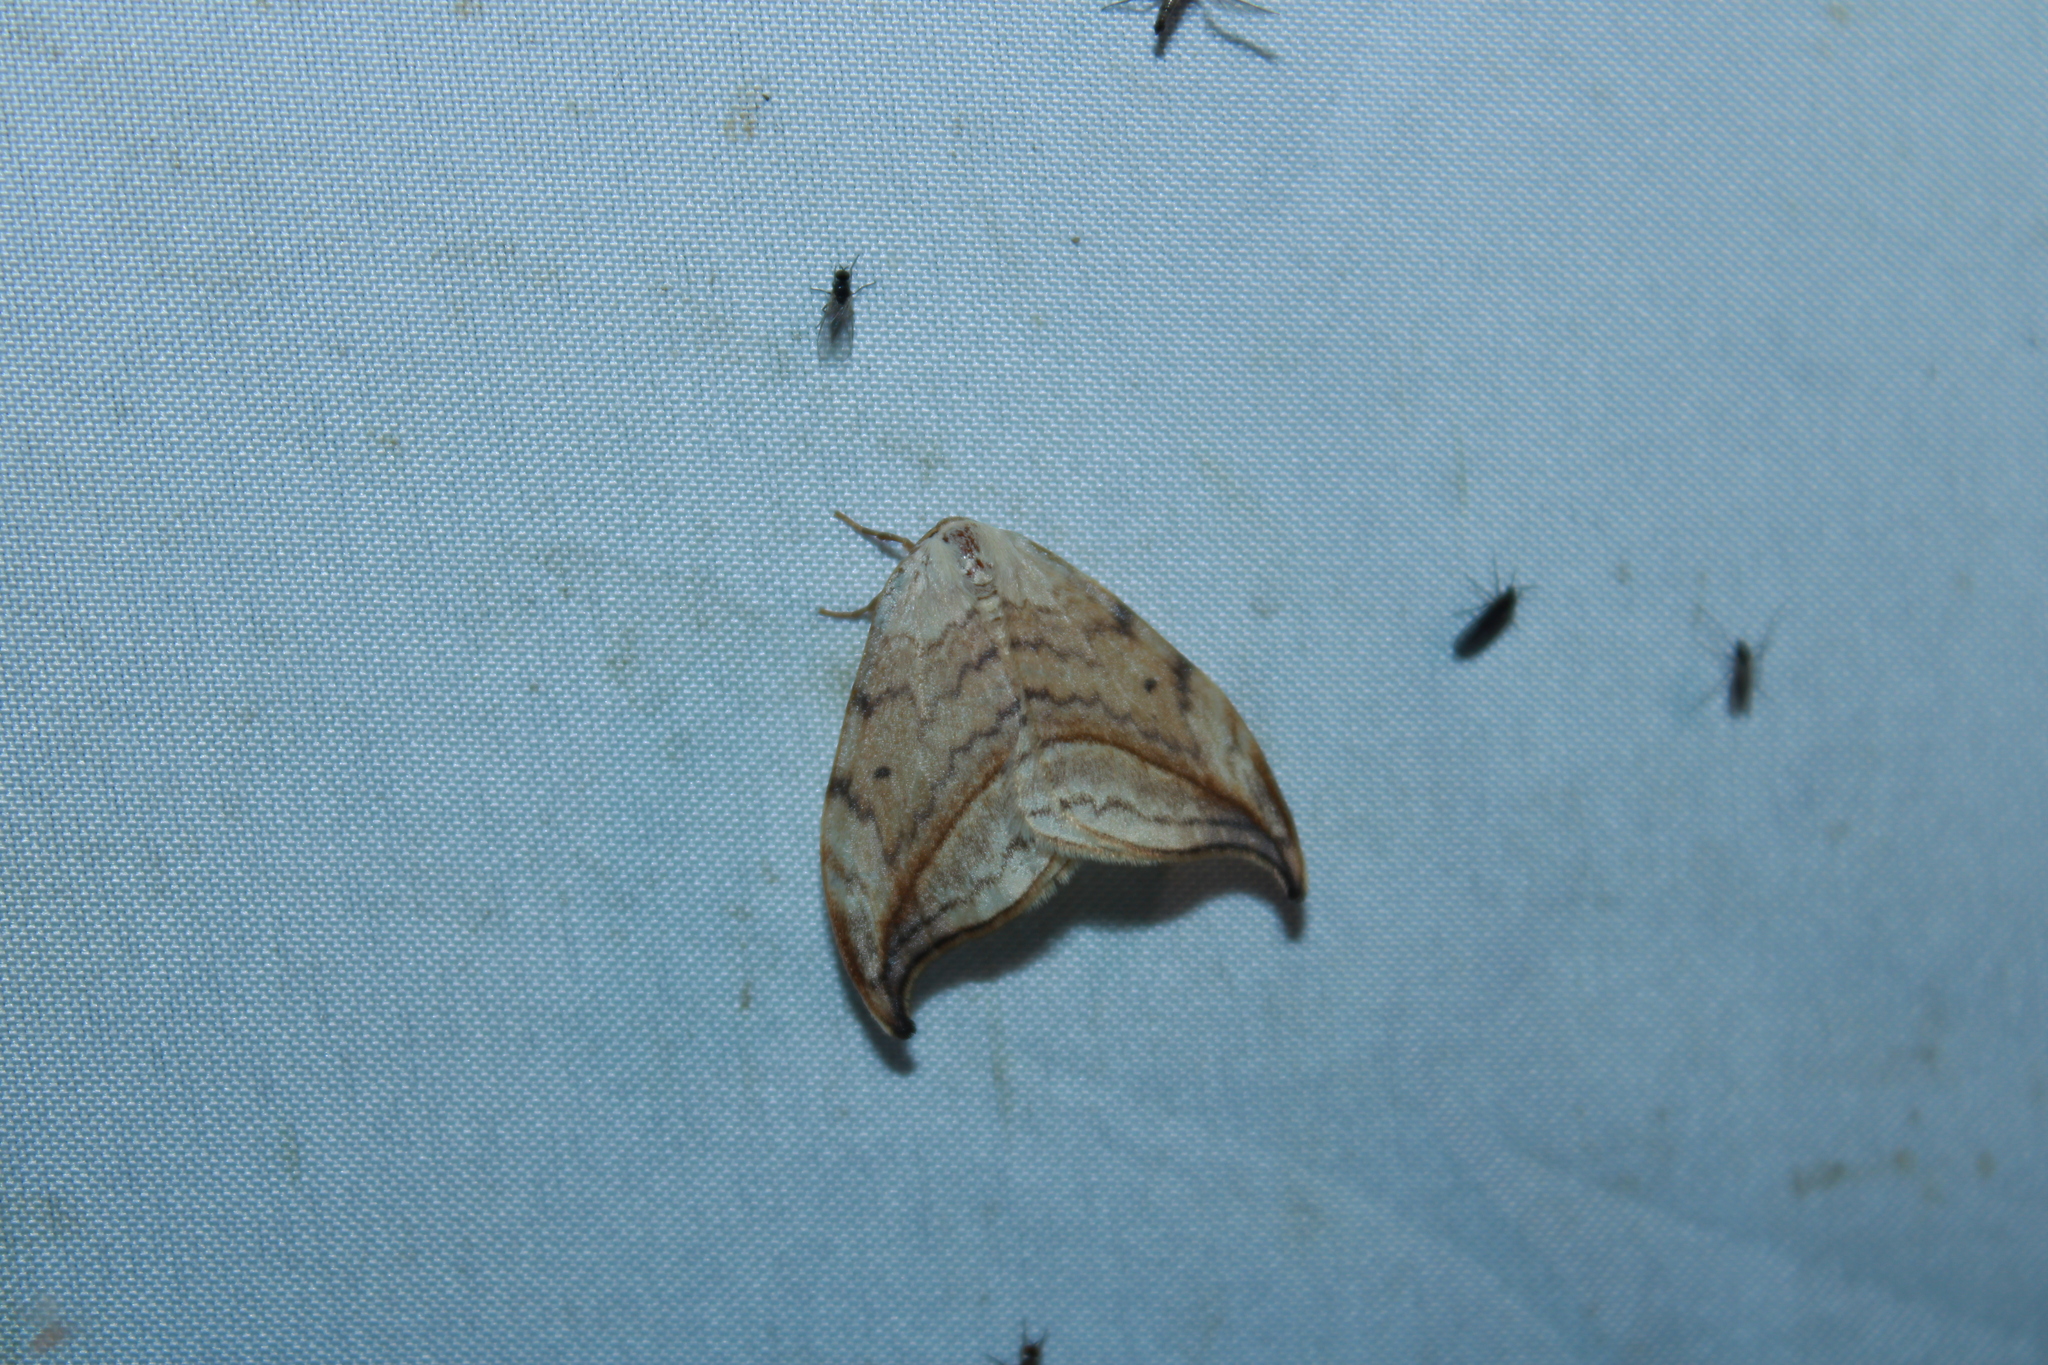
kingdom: Animalia
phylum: Arthropoda
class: Insecta
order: Lepidoptera
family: Drepanidae
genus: Drepana
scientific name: Drepana arcuata
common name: Arched hooktip moth
